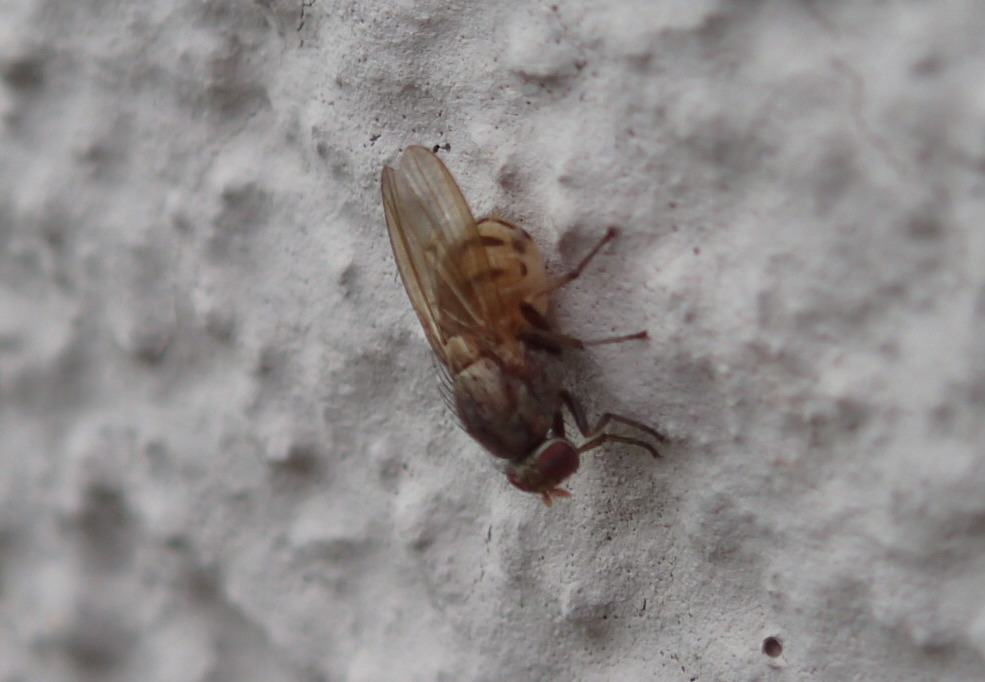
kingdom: Animalia
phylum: Arthropoda
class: Insecta
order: Diptera
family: Lauxaniidae
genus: Minettia
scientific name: Minettia fasciata
